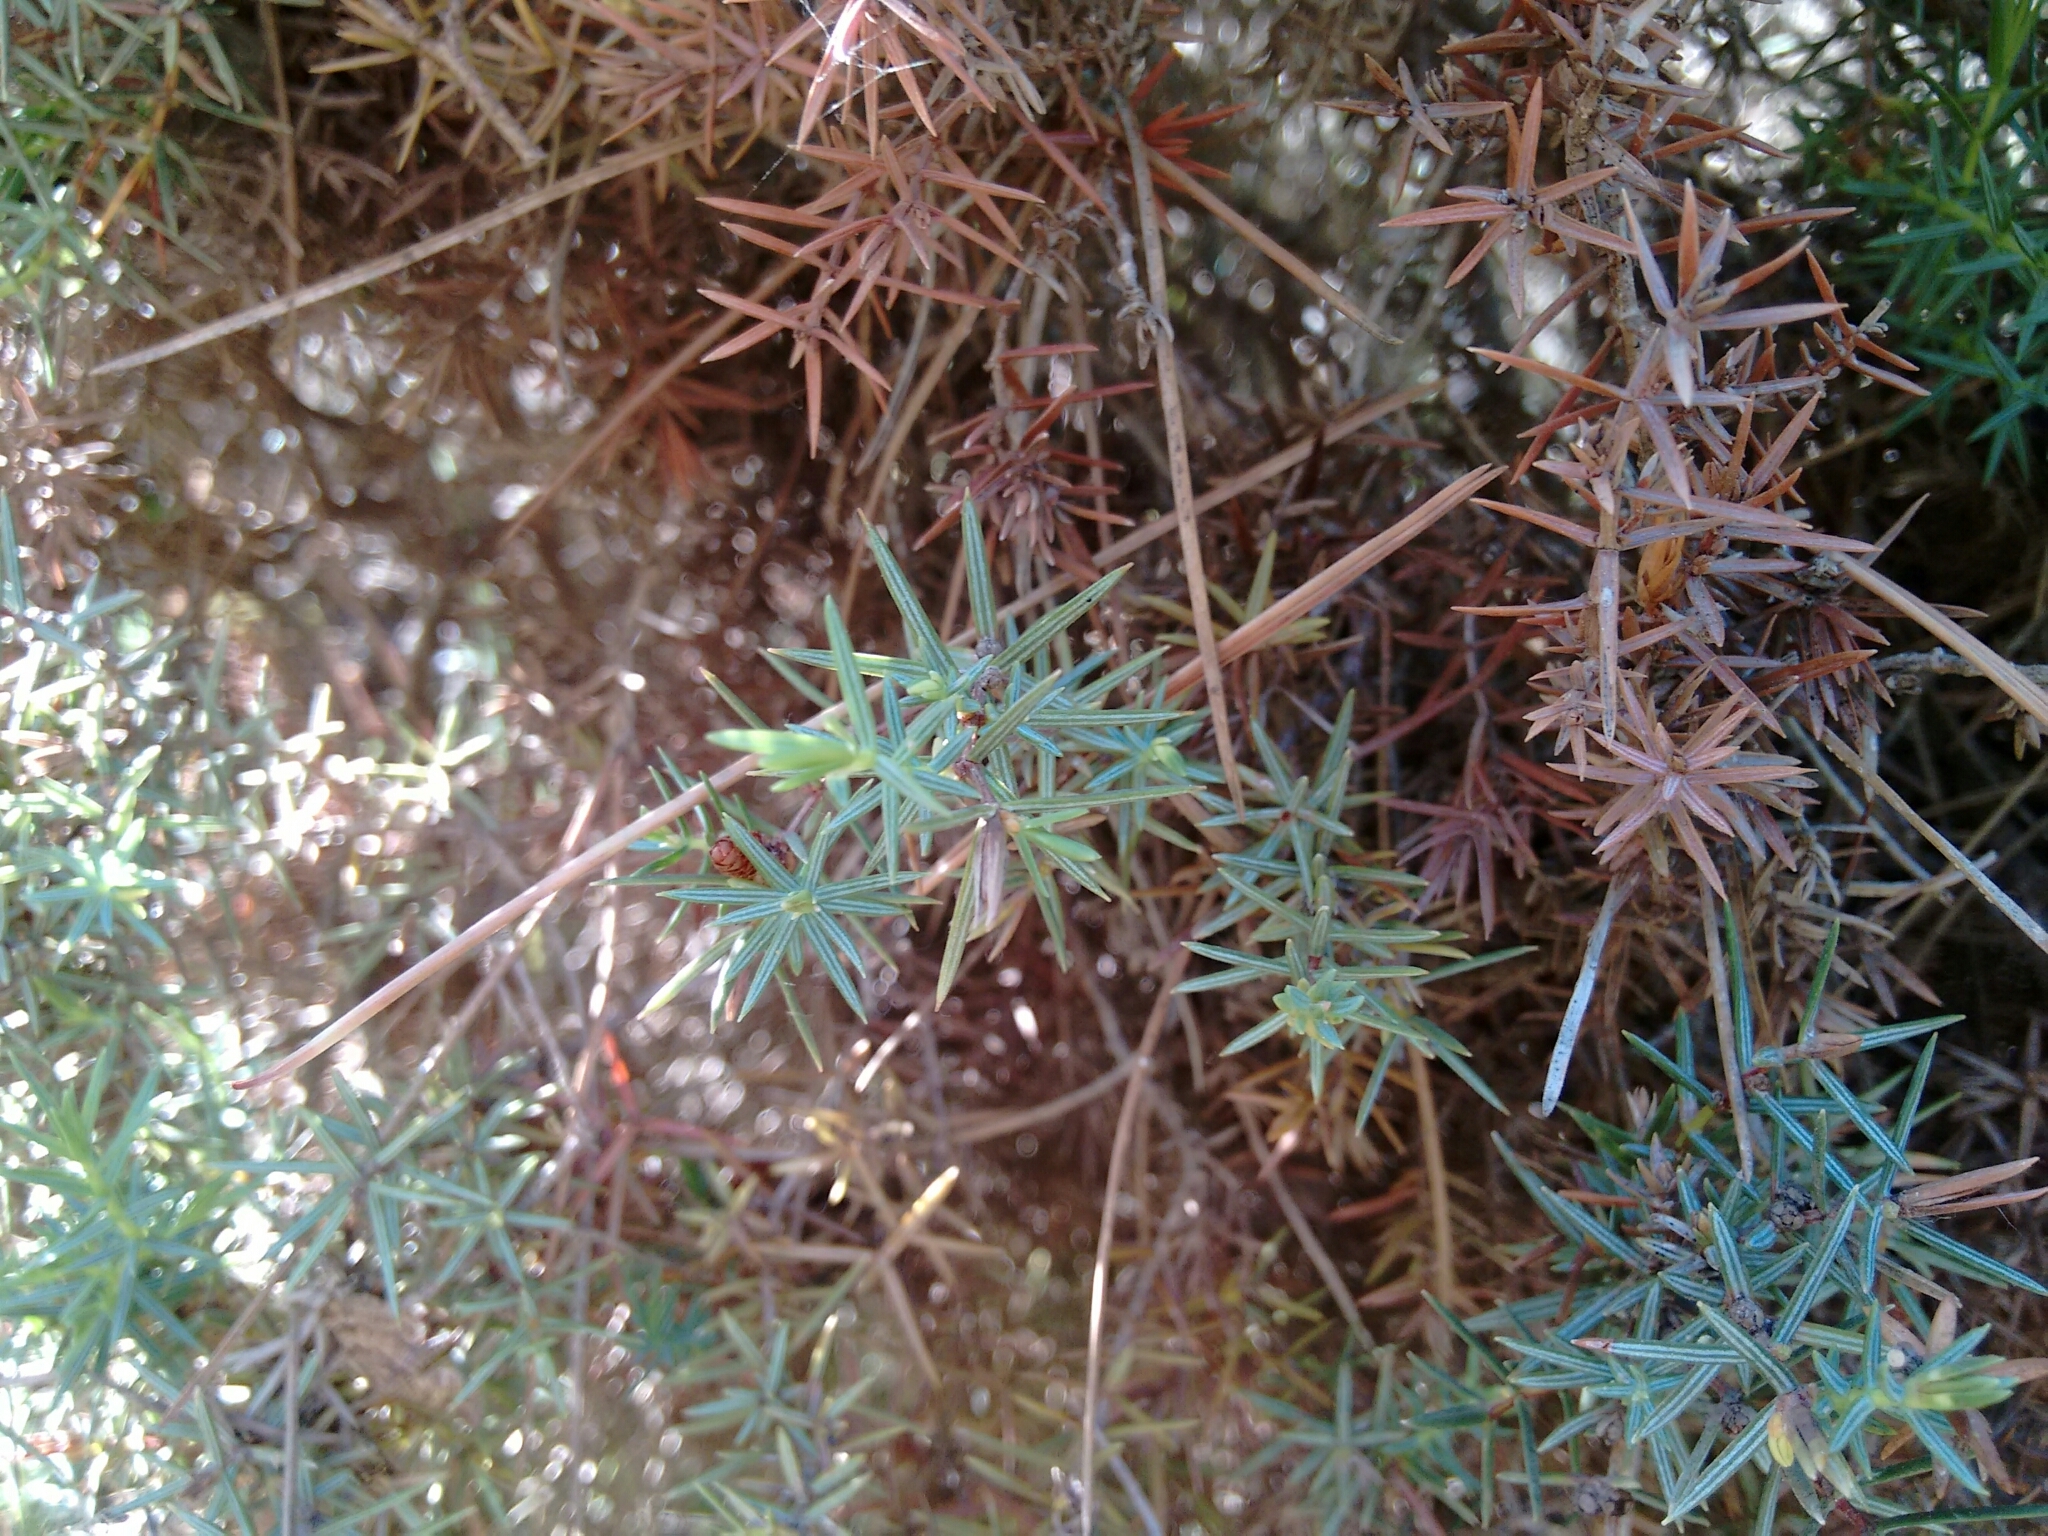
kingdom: Plantae
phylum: Tracheophyta
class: Pinopsida
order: Pinales
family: Cupressaceae
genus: Juniperus
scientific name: Juniperus oxycedrus
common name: Prickly juniper
